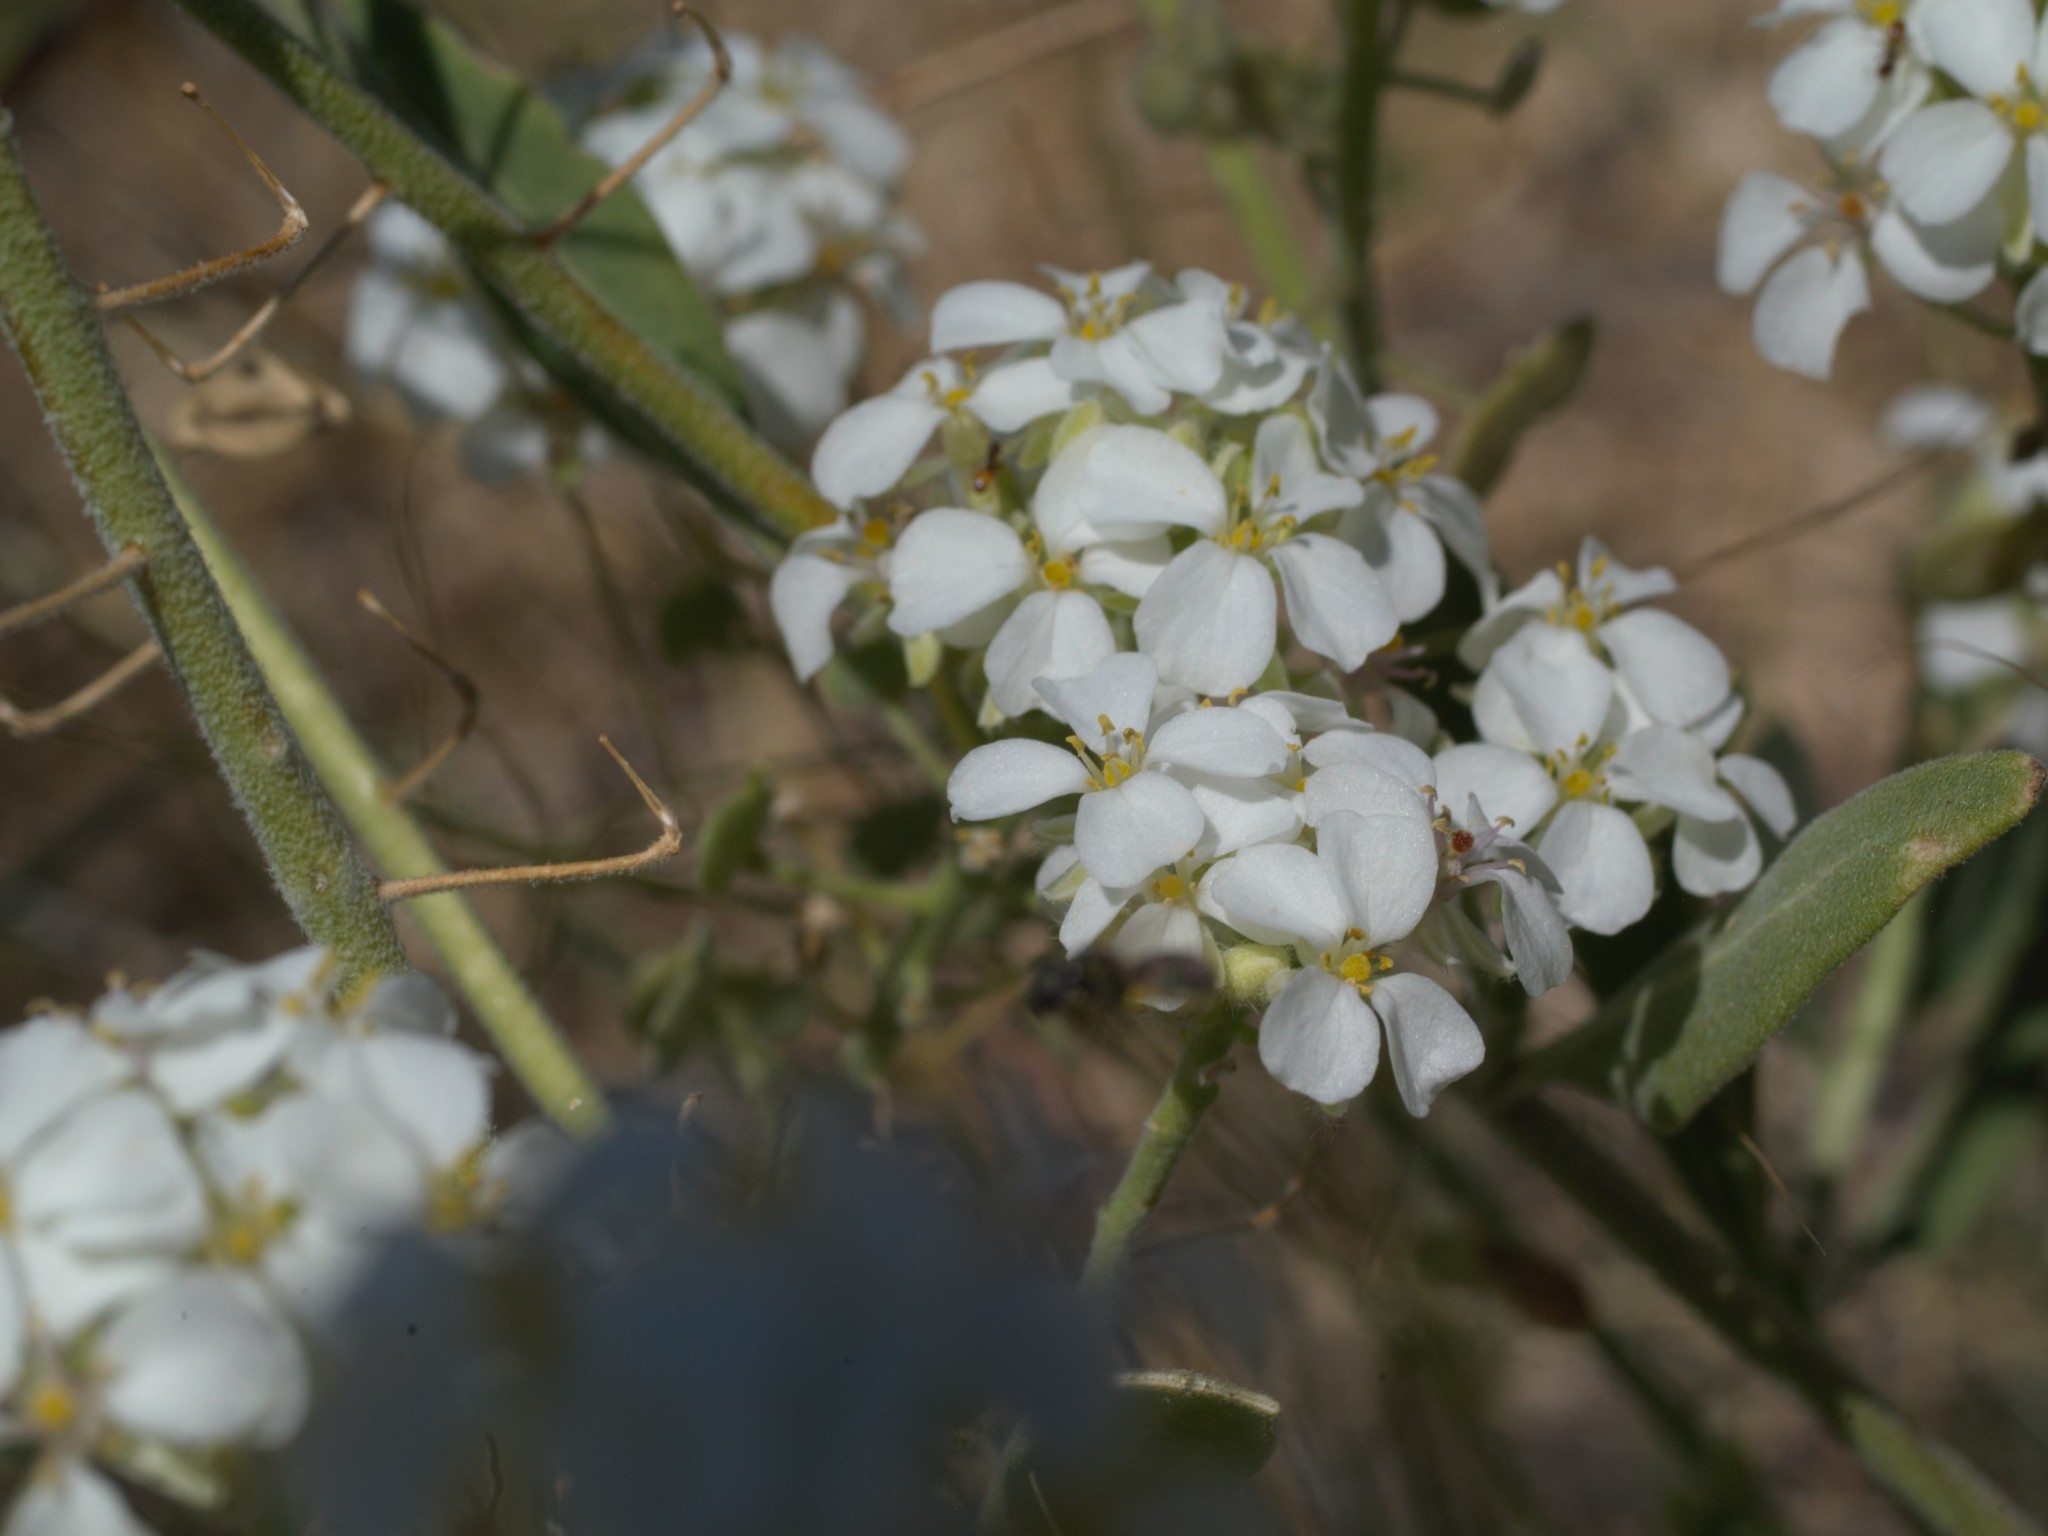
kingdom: Plantae
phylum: Tracheophyta
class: Magnoliopsida
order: Brassicales
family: Brassicaceae
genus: Dimorphocarpa
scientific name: Dimorphocarpa wislizenii
